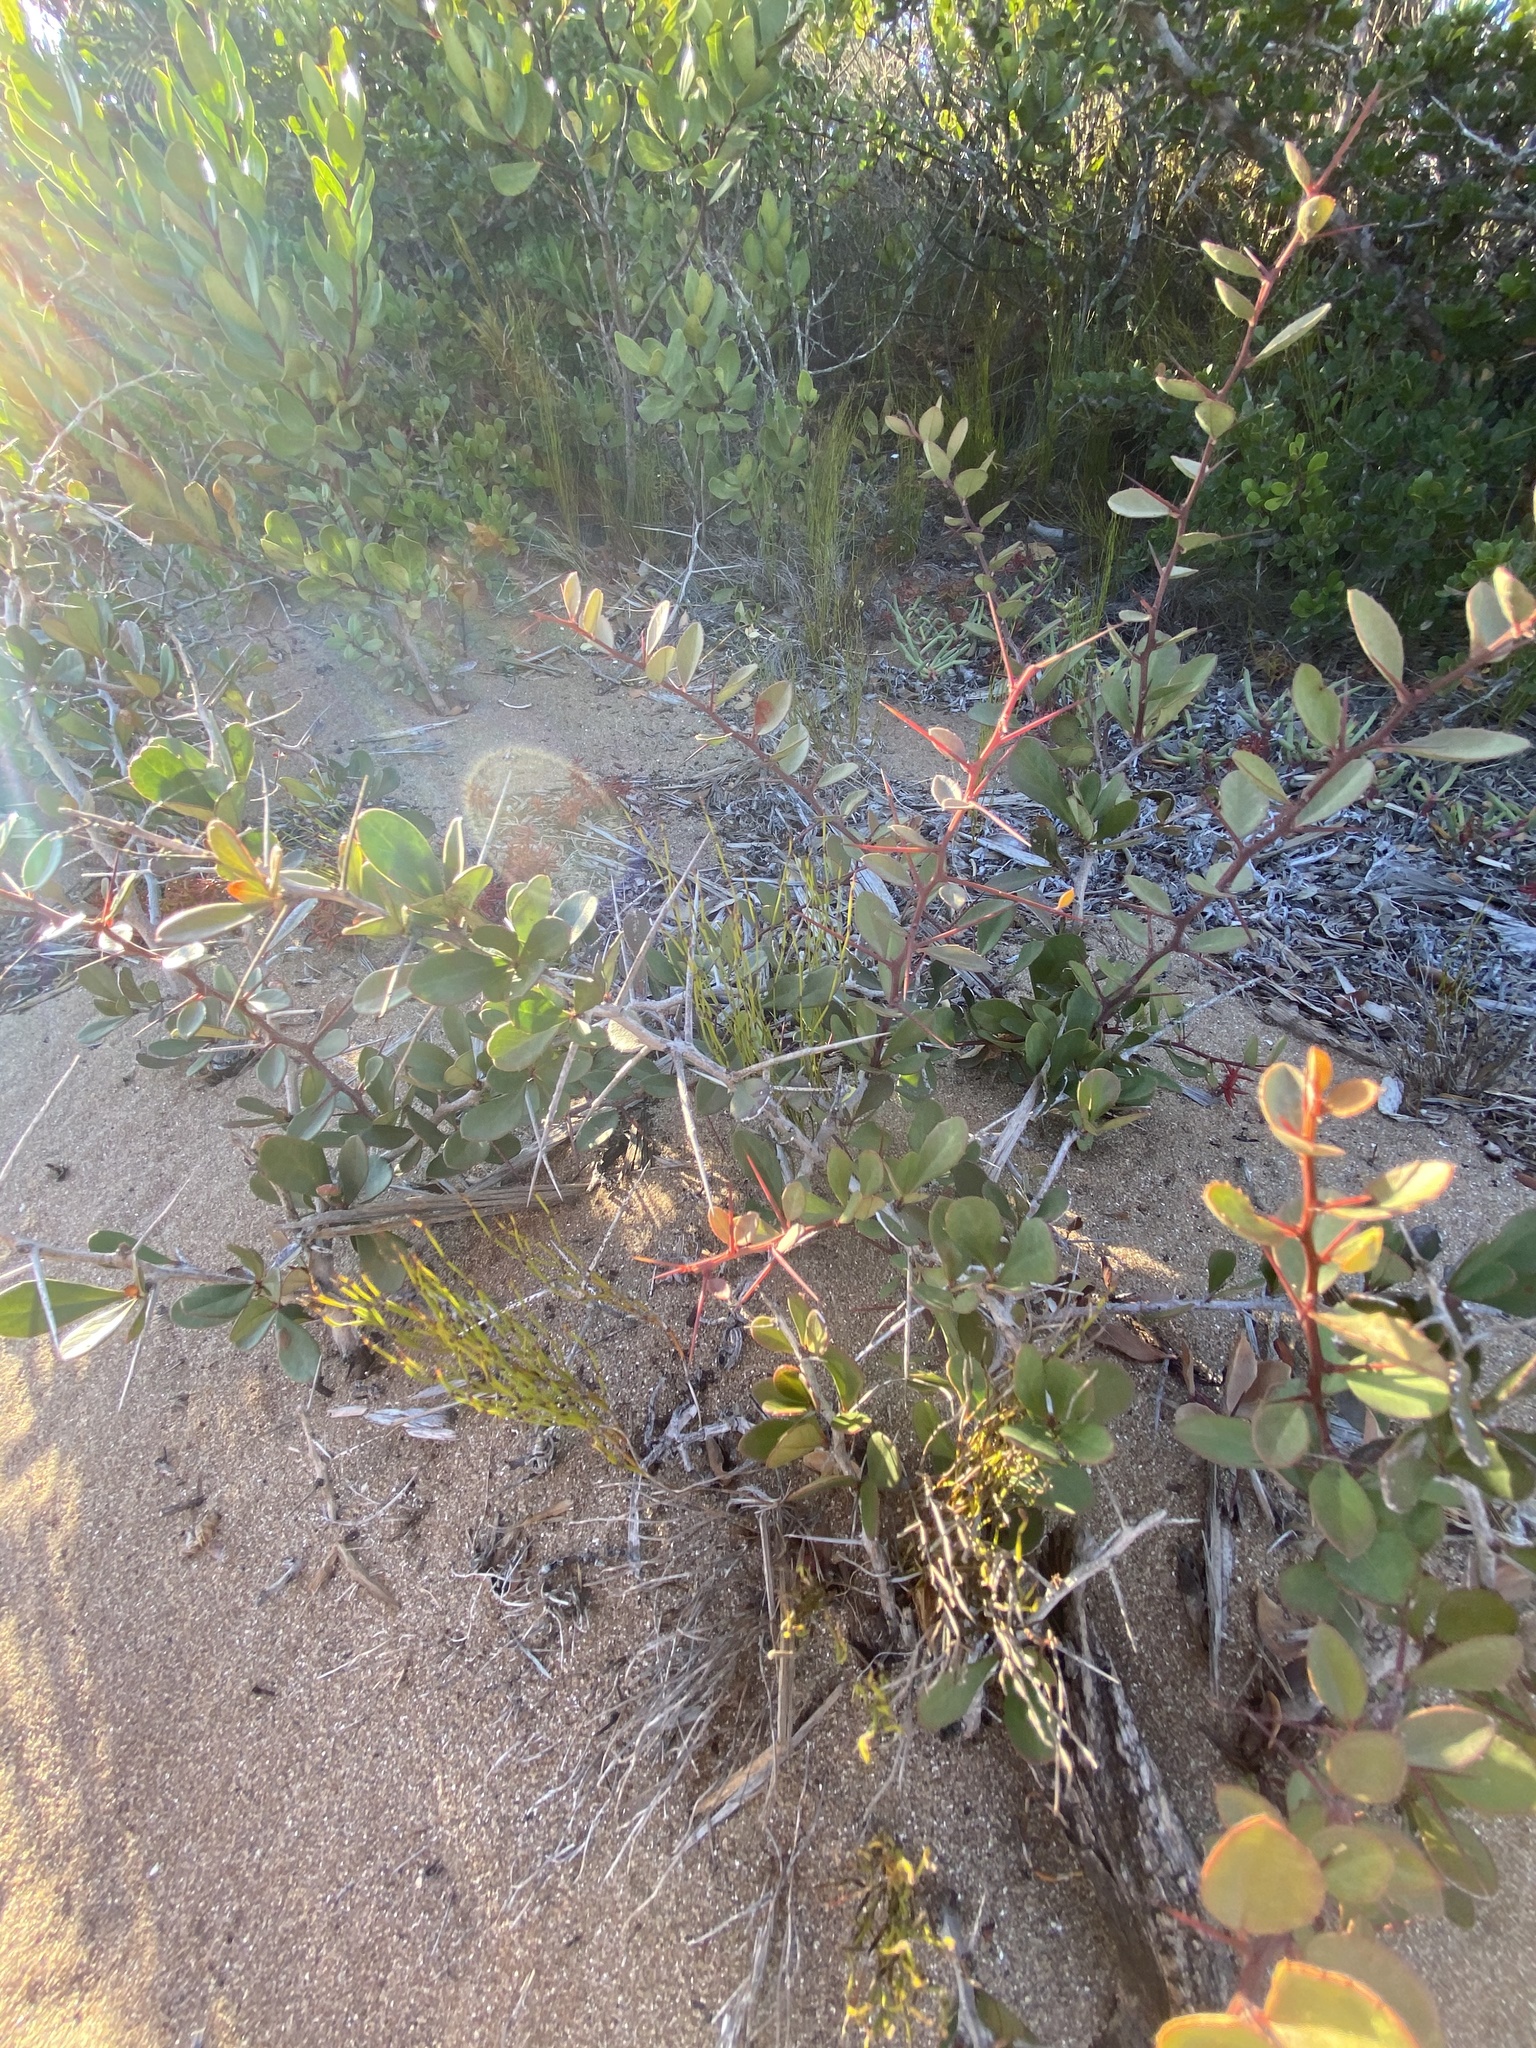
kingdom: Plantae
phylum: Tracheophyta
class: Magnoliopsida
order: Celastrales
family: Celastraceae
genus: Putterlickia
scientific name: Putterlickia pyracantha
